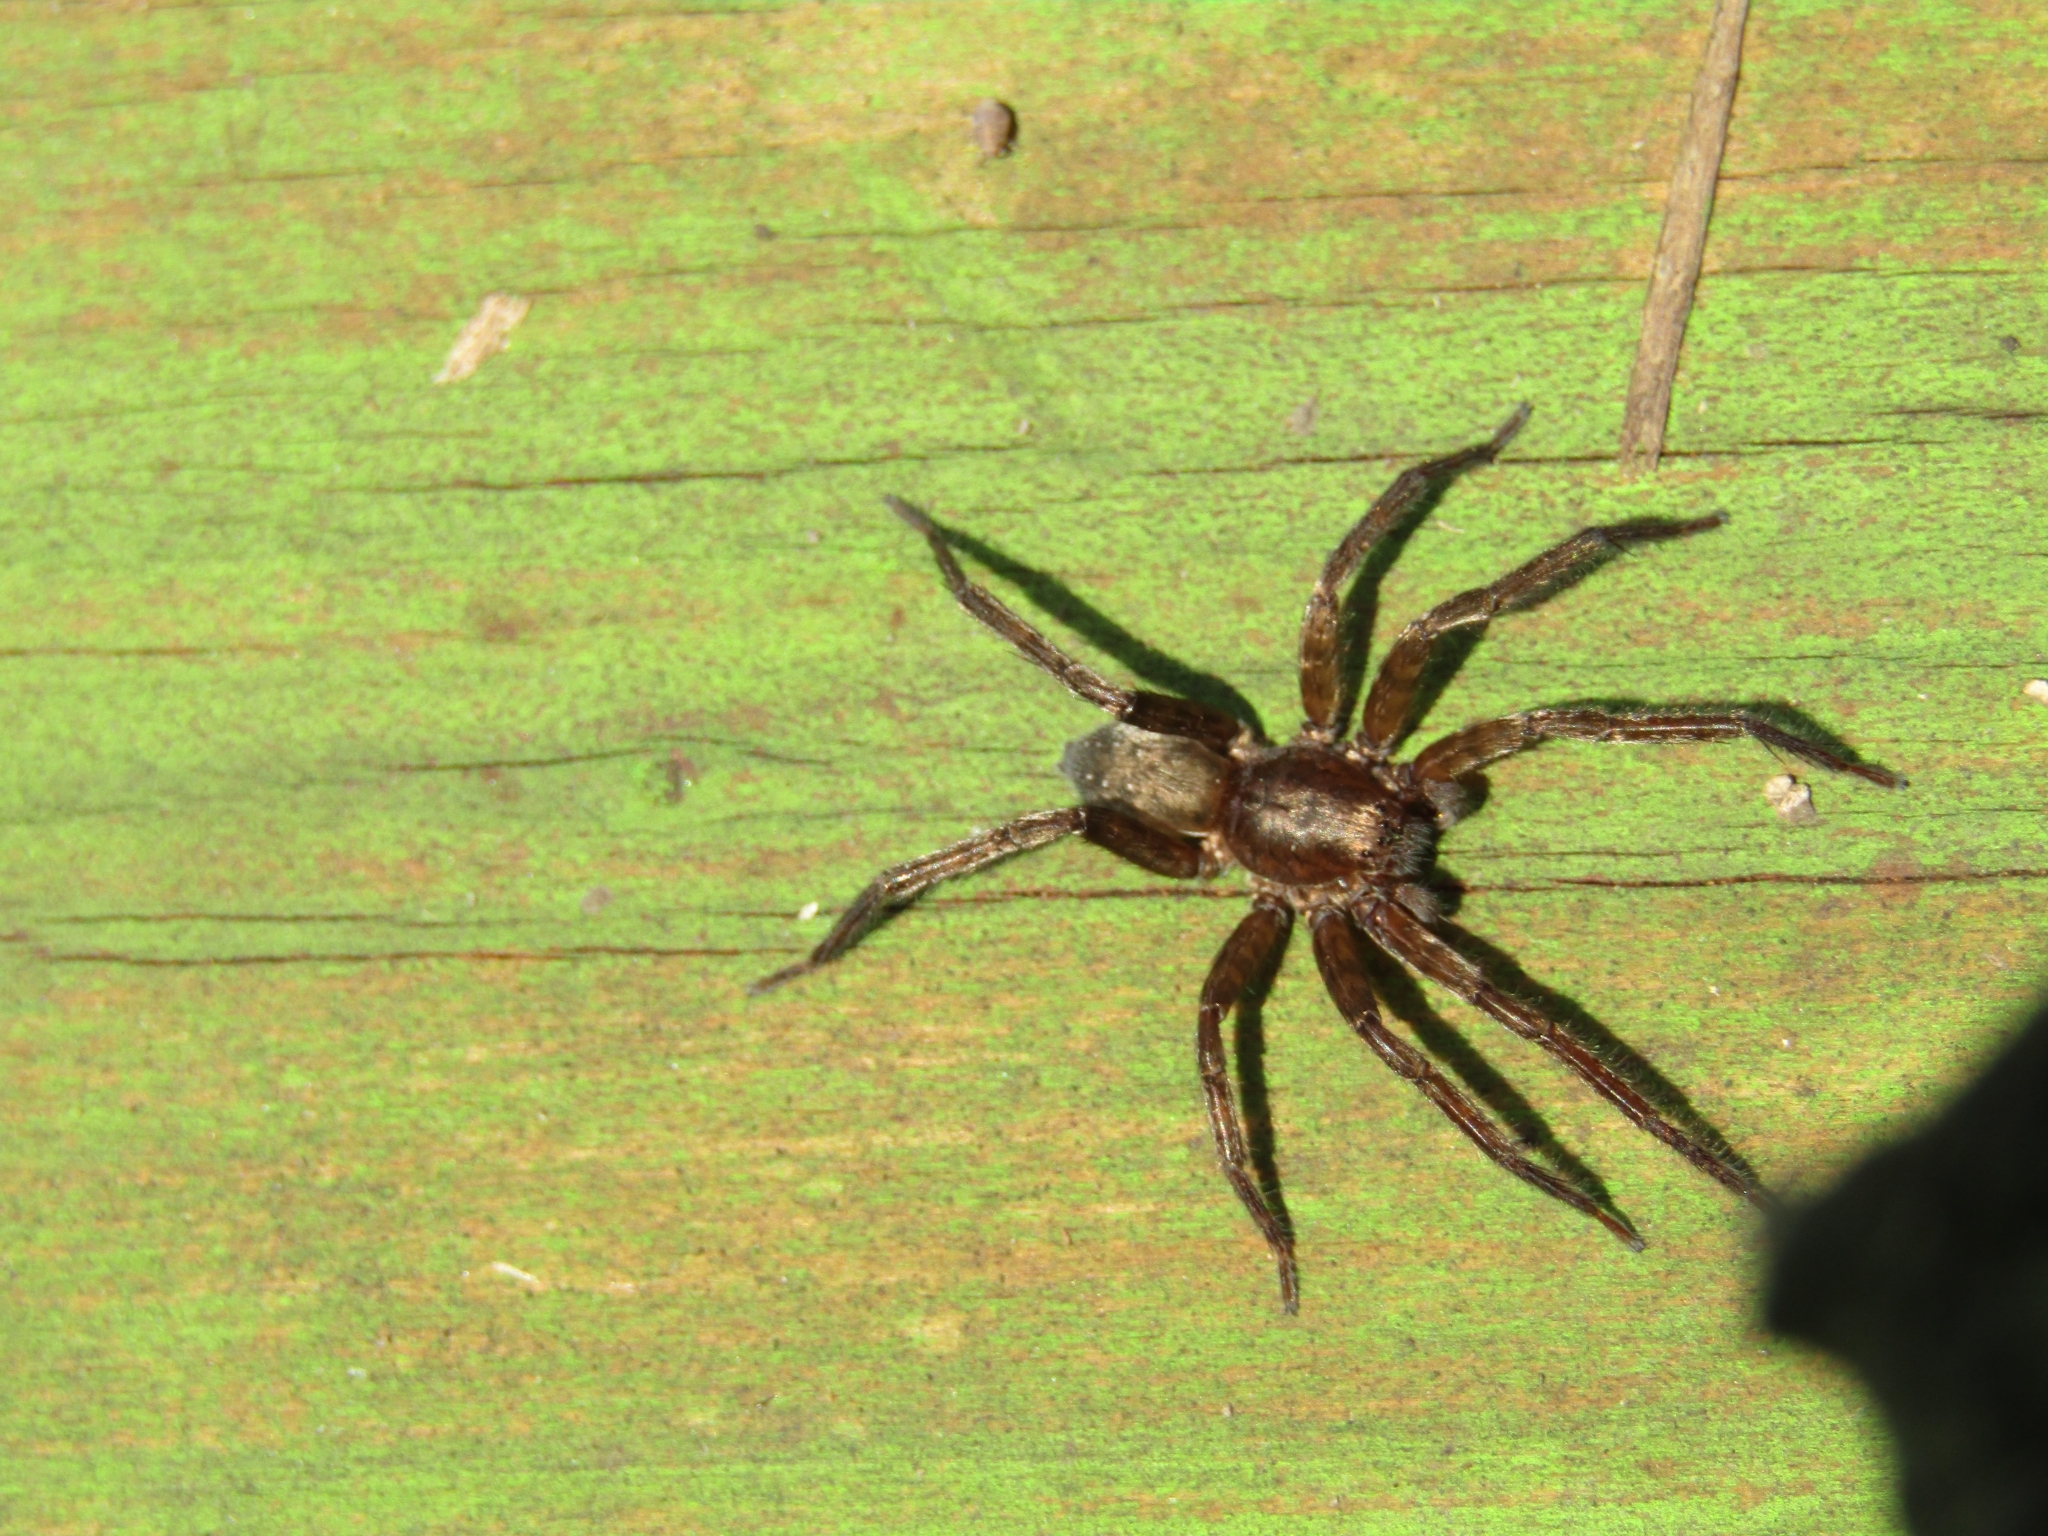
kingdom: Animalia
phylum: Arthropoda
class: Arachnida
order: Araneae
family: Ctenidae
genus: Asthenoctenus
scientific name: Asthenoctenus borellii
